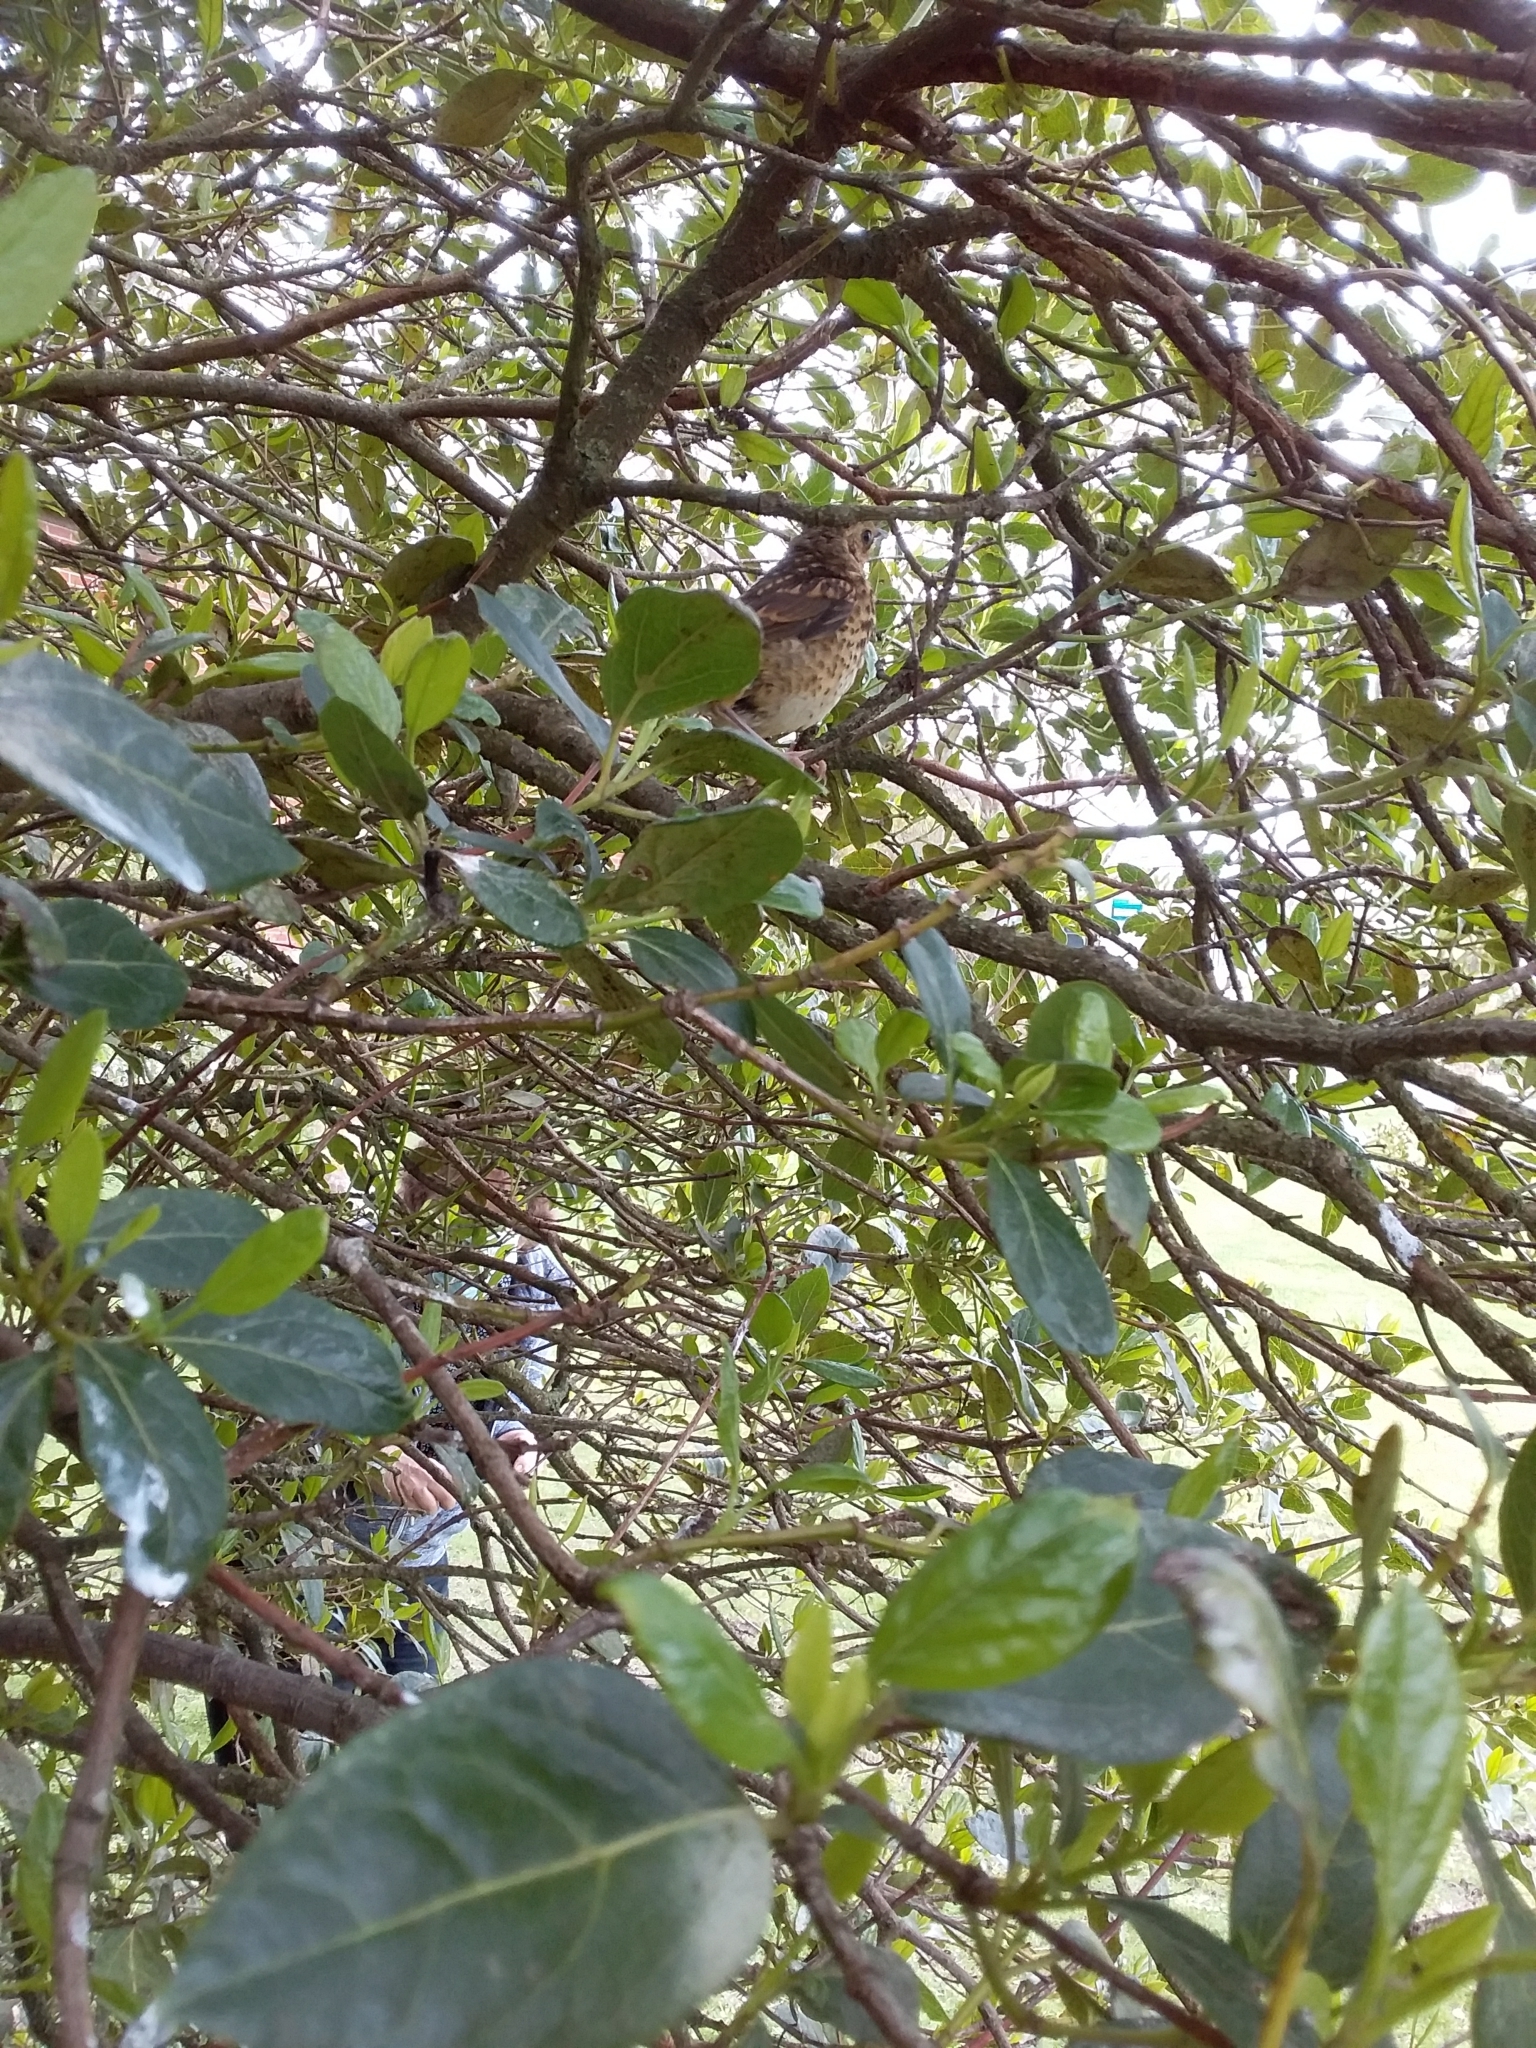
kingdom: Animalia
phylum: Chordata
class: Aves
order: Passeriformes
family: Turdidae
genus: Turdus
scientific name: Turdus philomelos
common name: Song thrush
